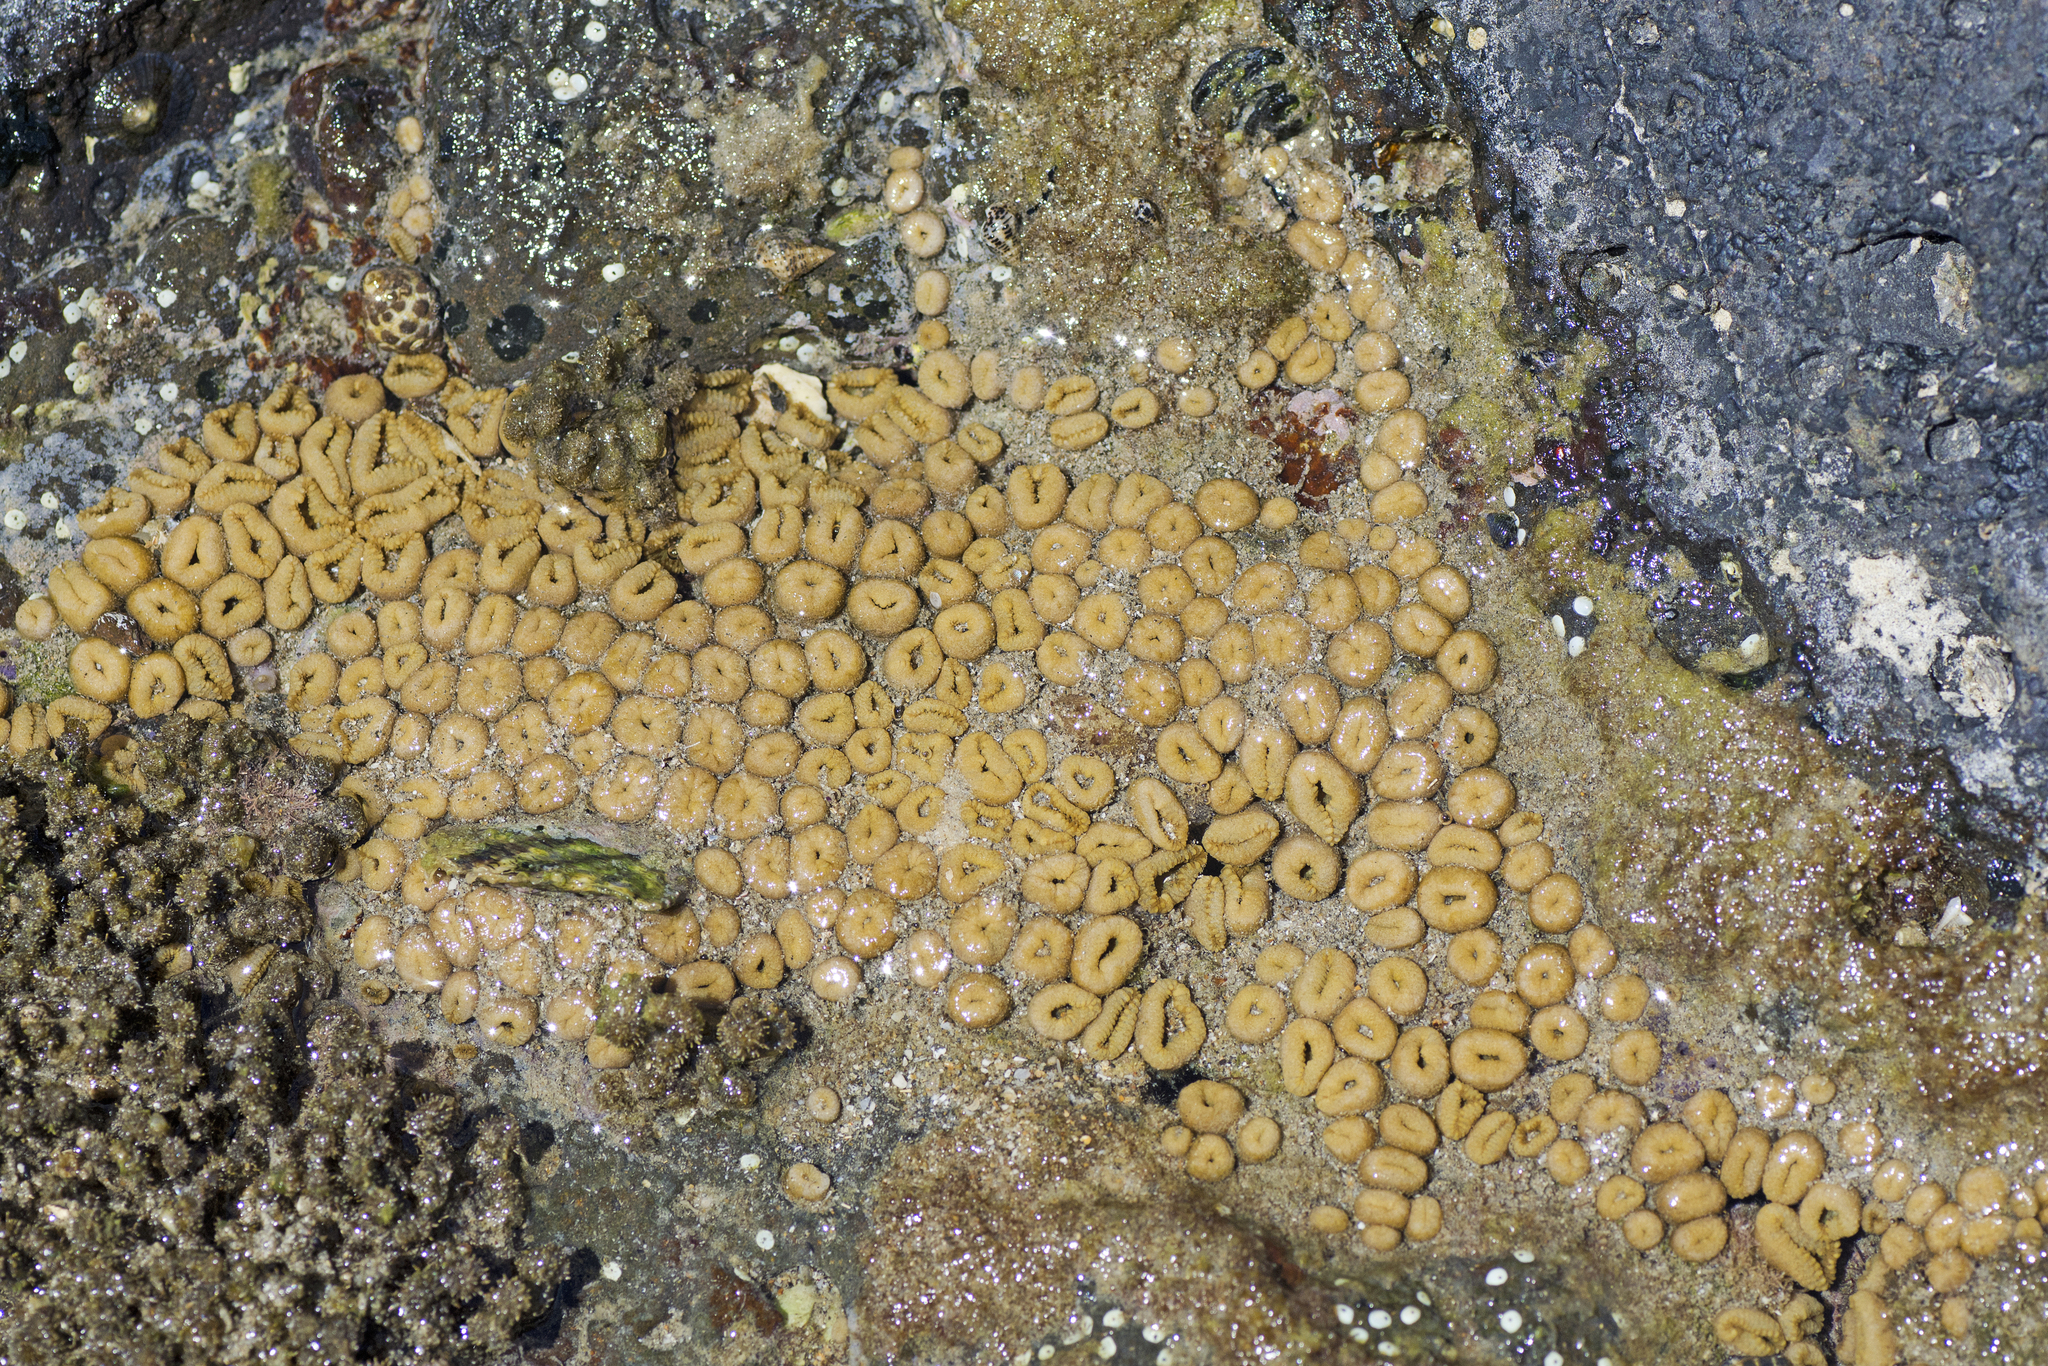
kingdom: Animalia
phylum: Cnidaria
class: Anthozoa
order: Zoantharia
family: Sphenopidae
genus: Palythoa
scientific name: Palythoa mutuki
